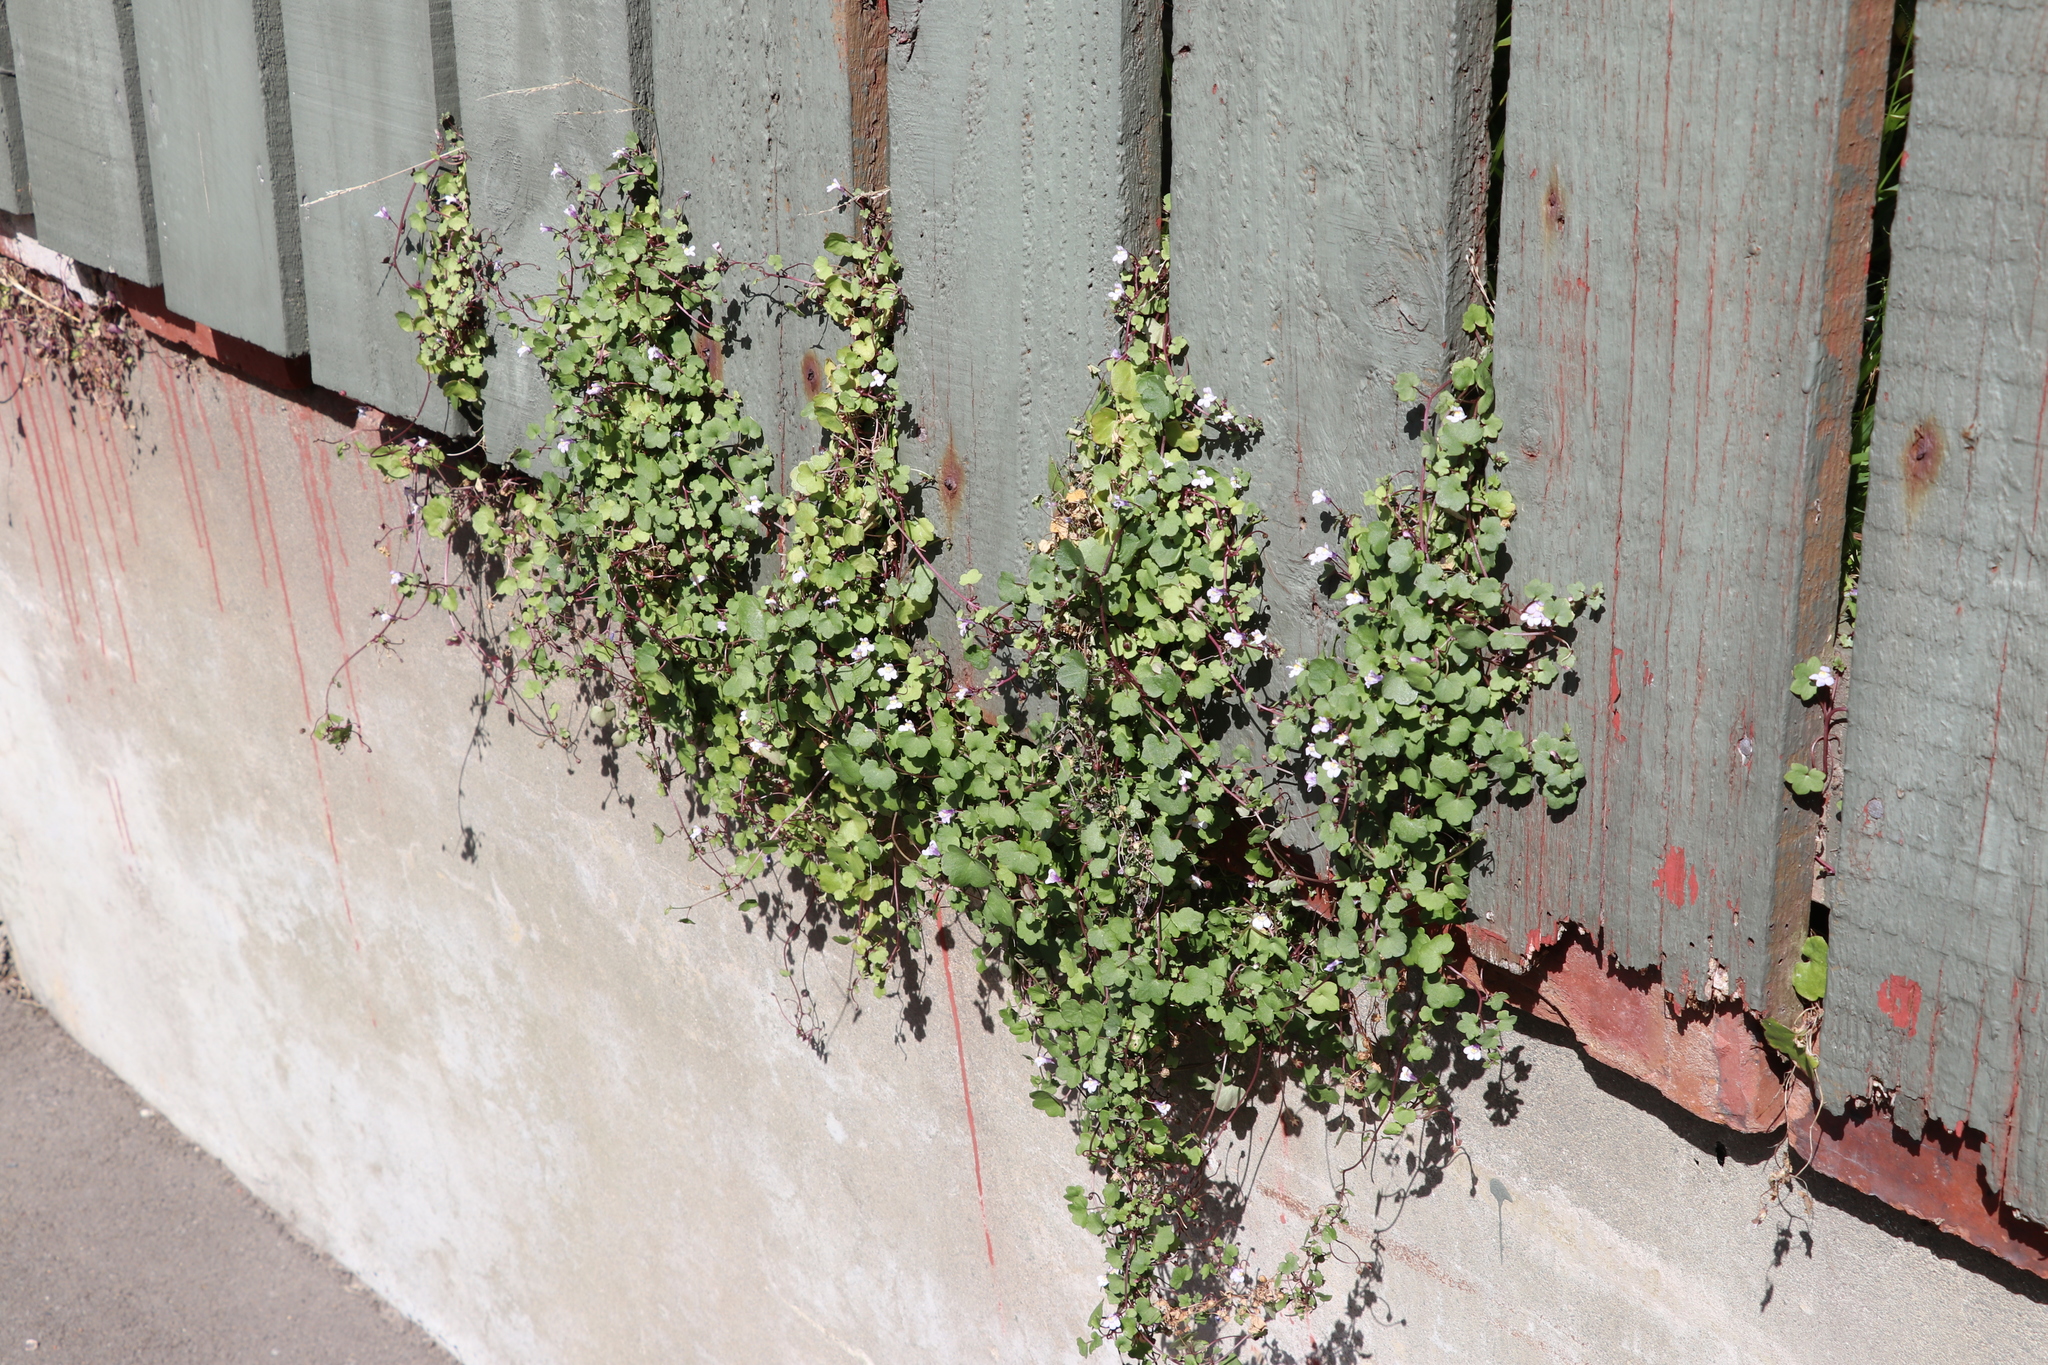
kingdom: Plantae
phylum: Tracheophyta
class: Magnoliopsida
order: Lamiales
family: Plantaginaceae
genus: Cymbalaria
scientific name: Cymbalaria muralis
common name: Ivy-leaved toadflax
